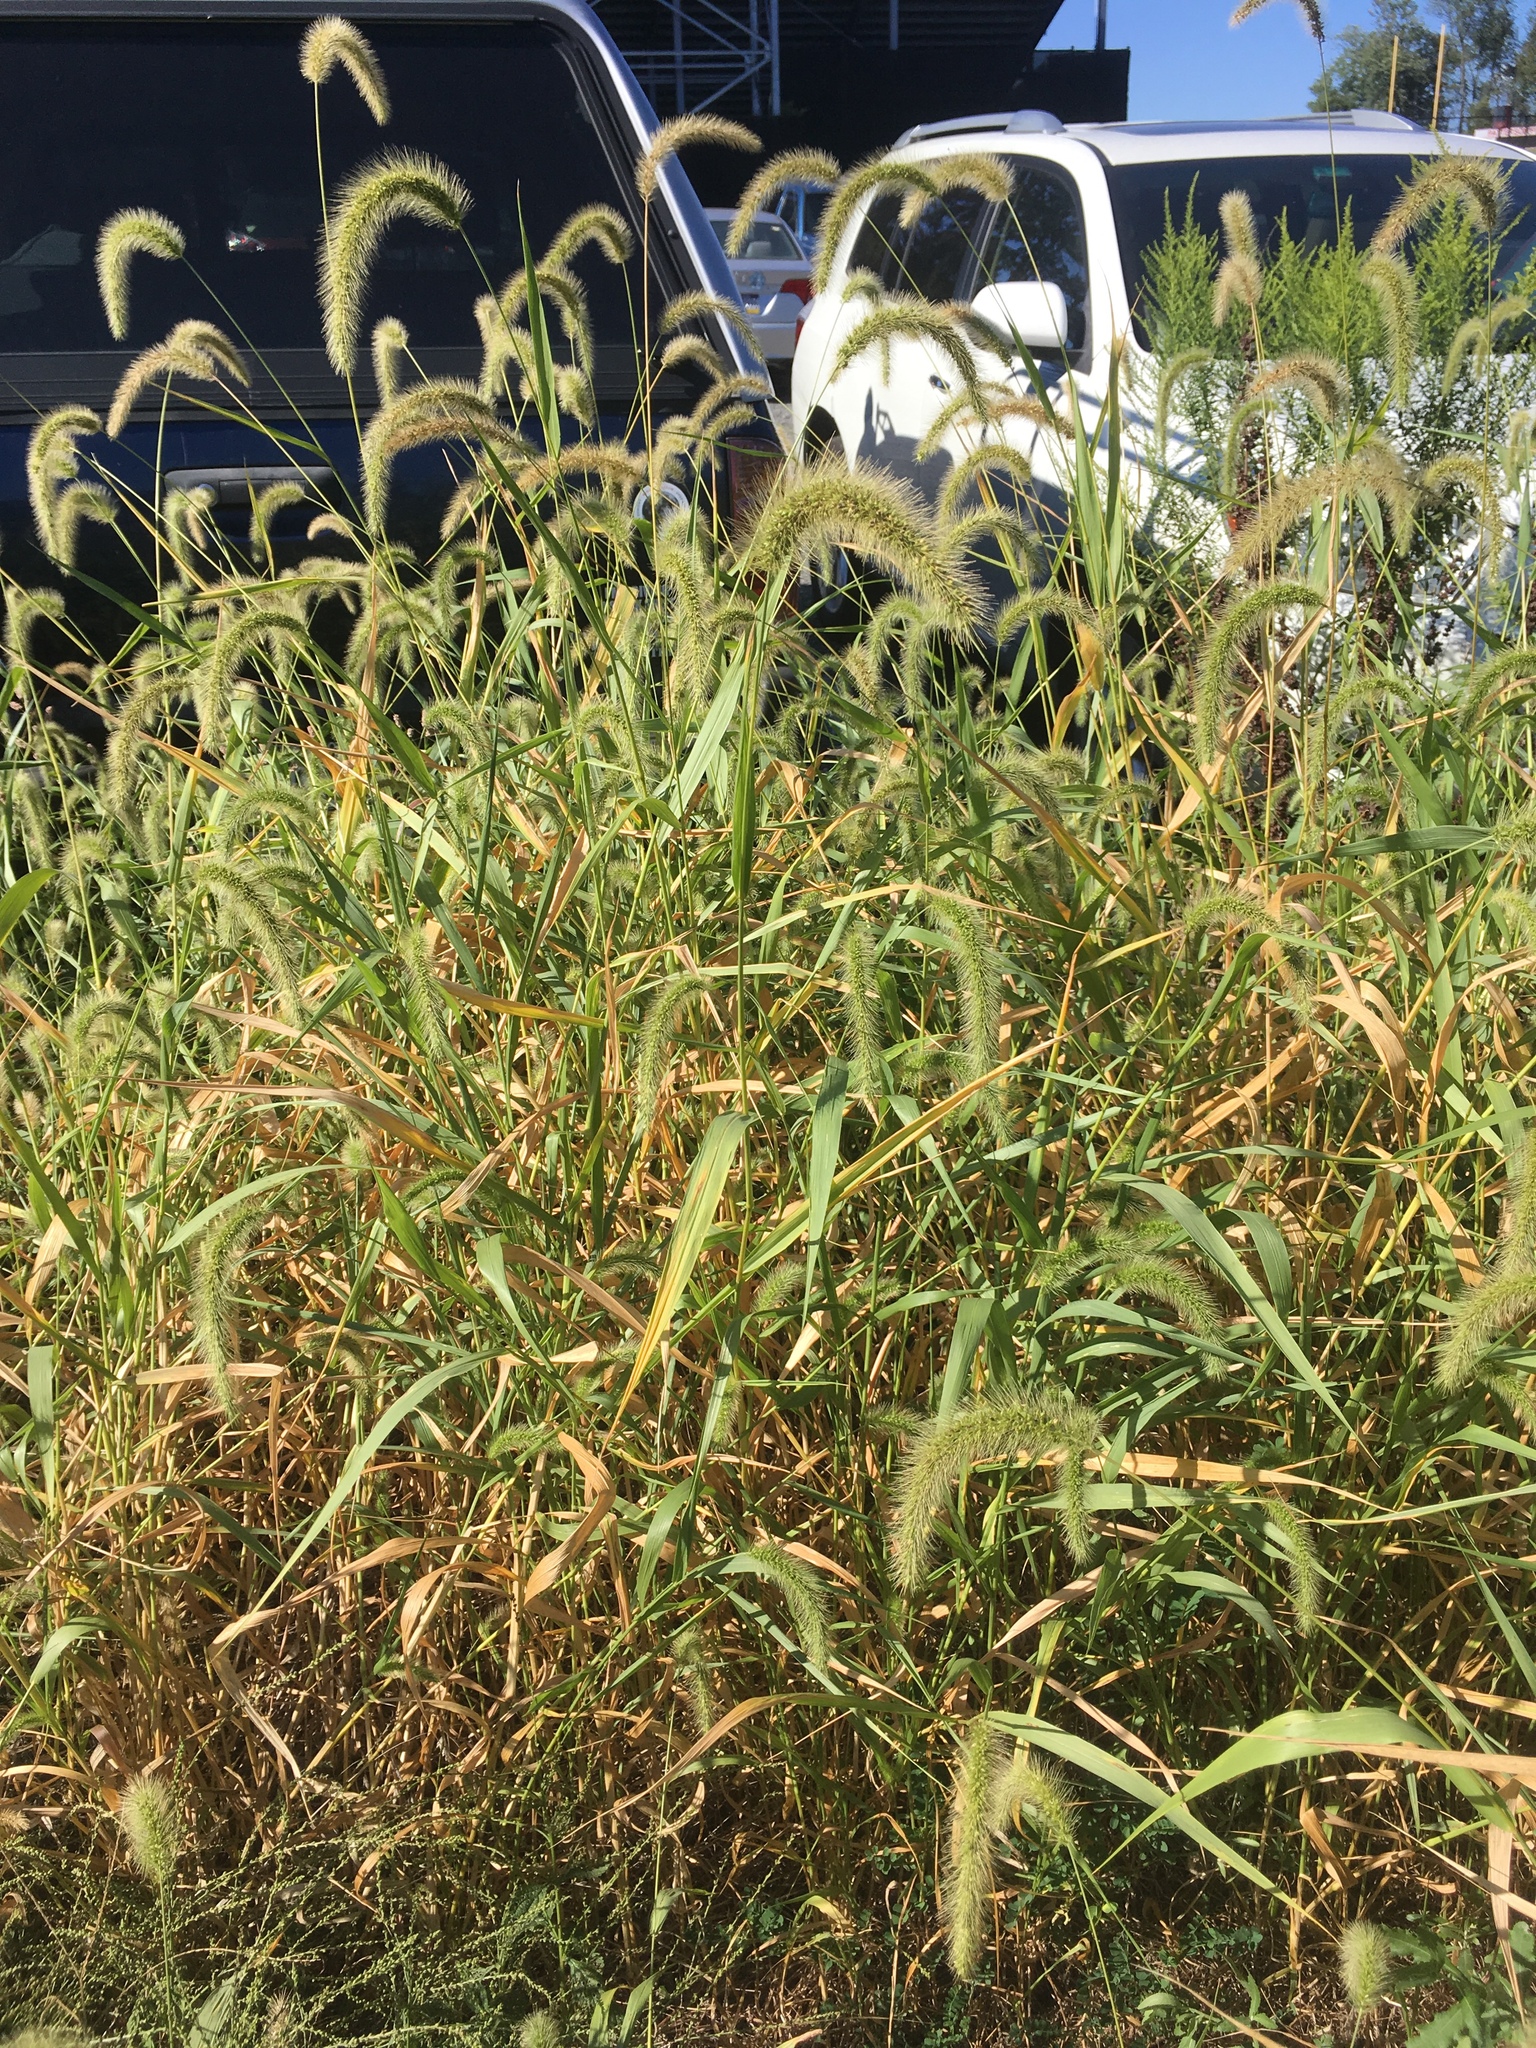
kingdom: Plantae
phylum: Tracheophyta
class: Liliopsida
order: Poales
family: Poaceae
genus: Setaria
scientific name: Setaria faberi
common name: Nodding bristle-grass
